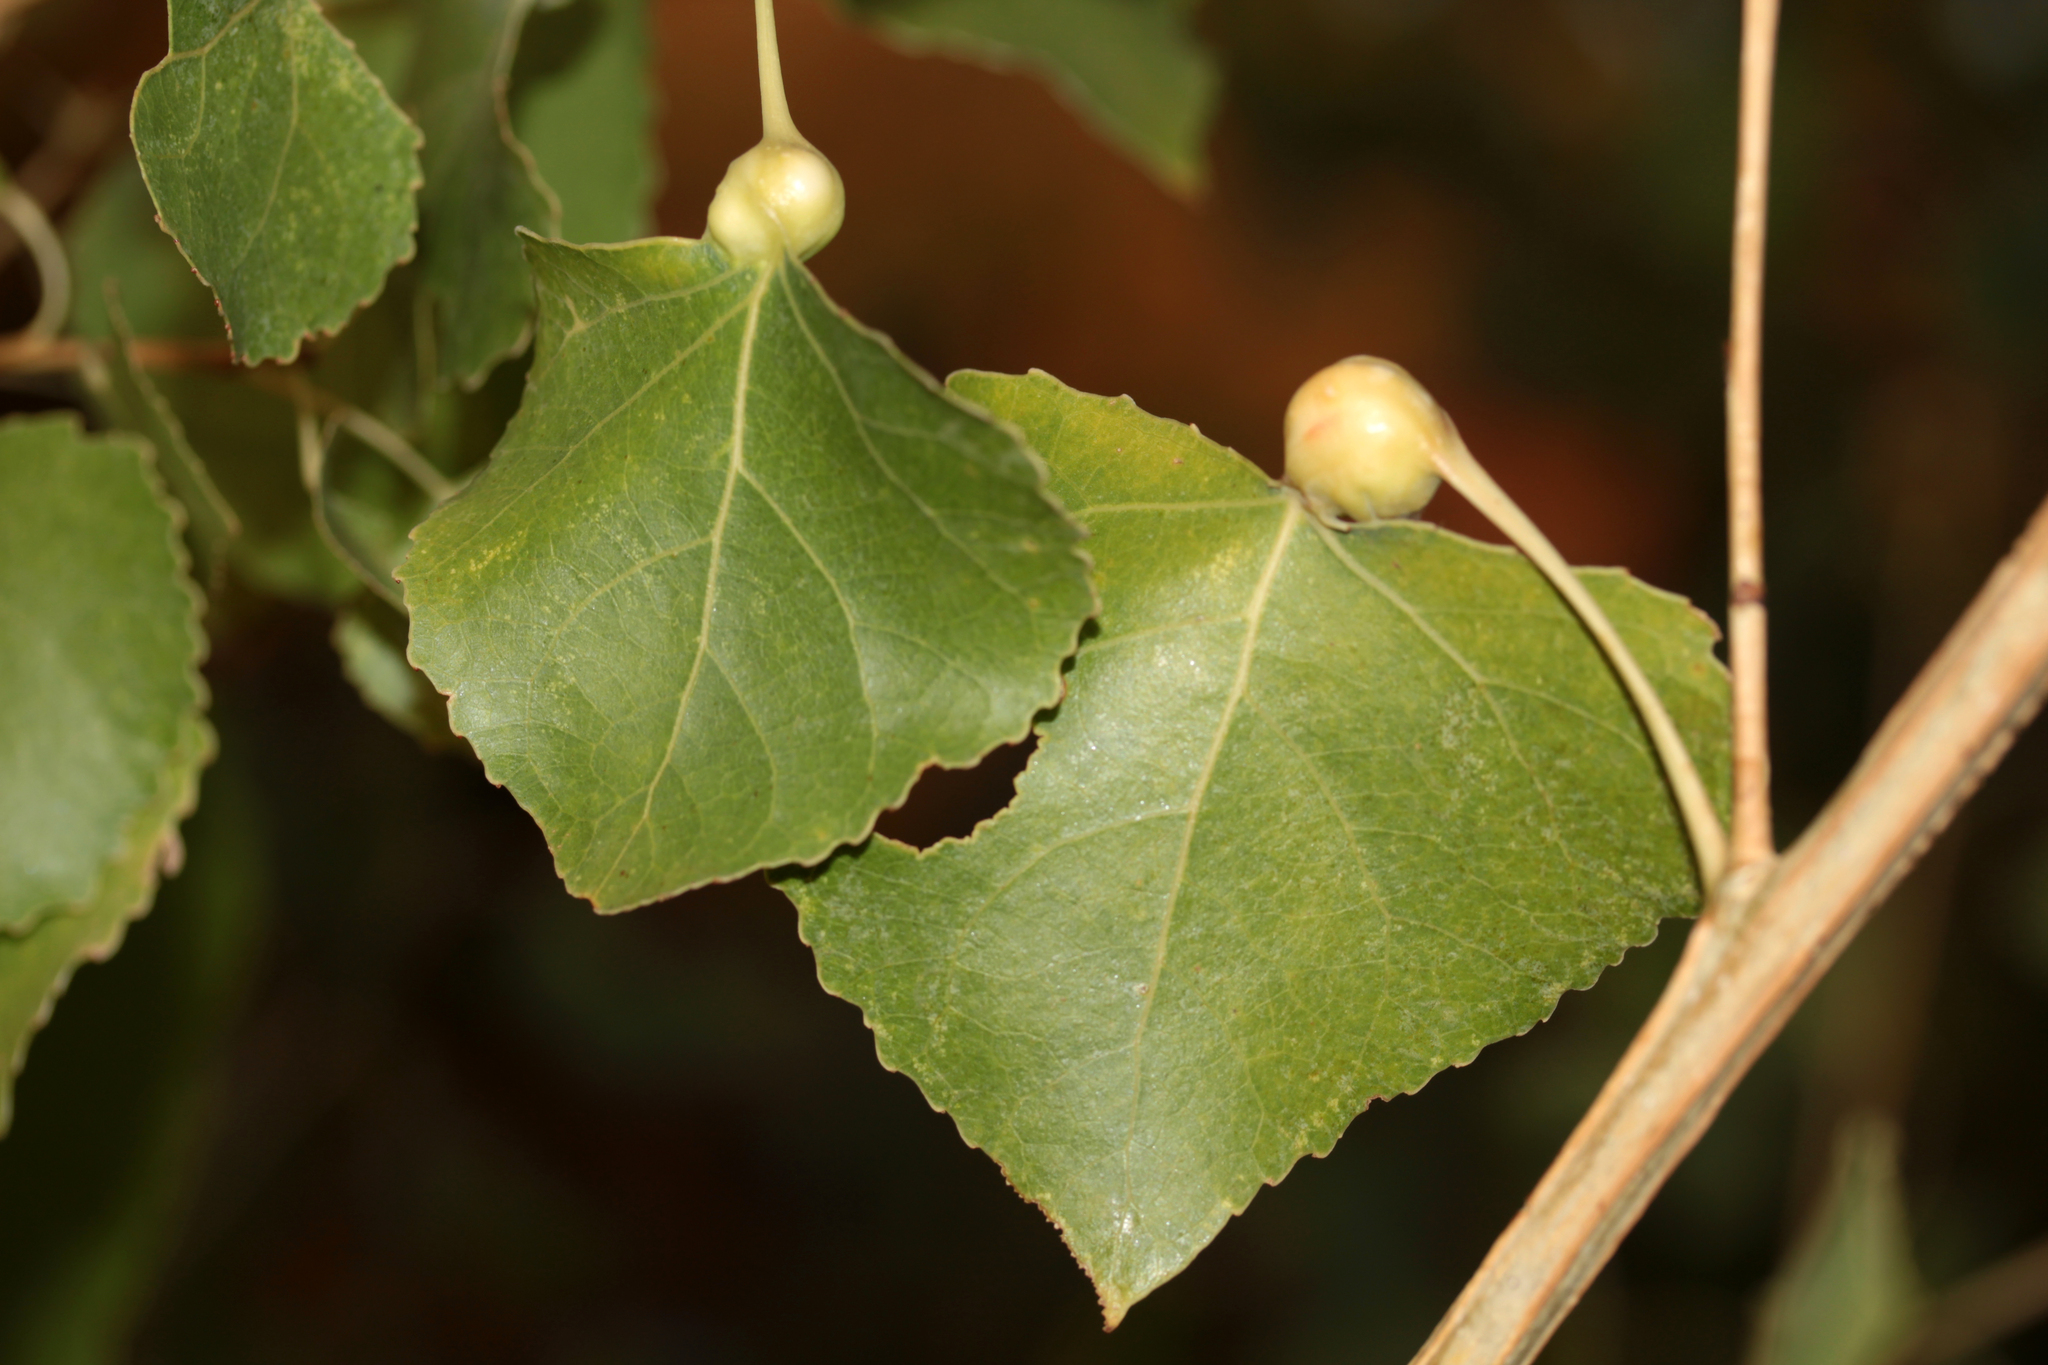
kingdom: Animalia
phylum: Arthropoda
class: Insecta
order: Hemiptera
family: Aphididae
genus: Pemphigus
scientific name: Pemphigus obesinymphae
